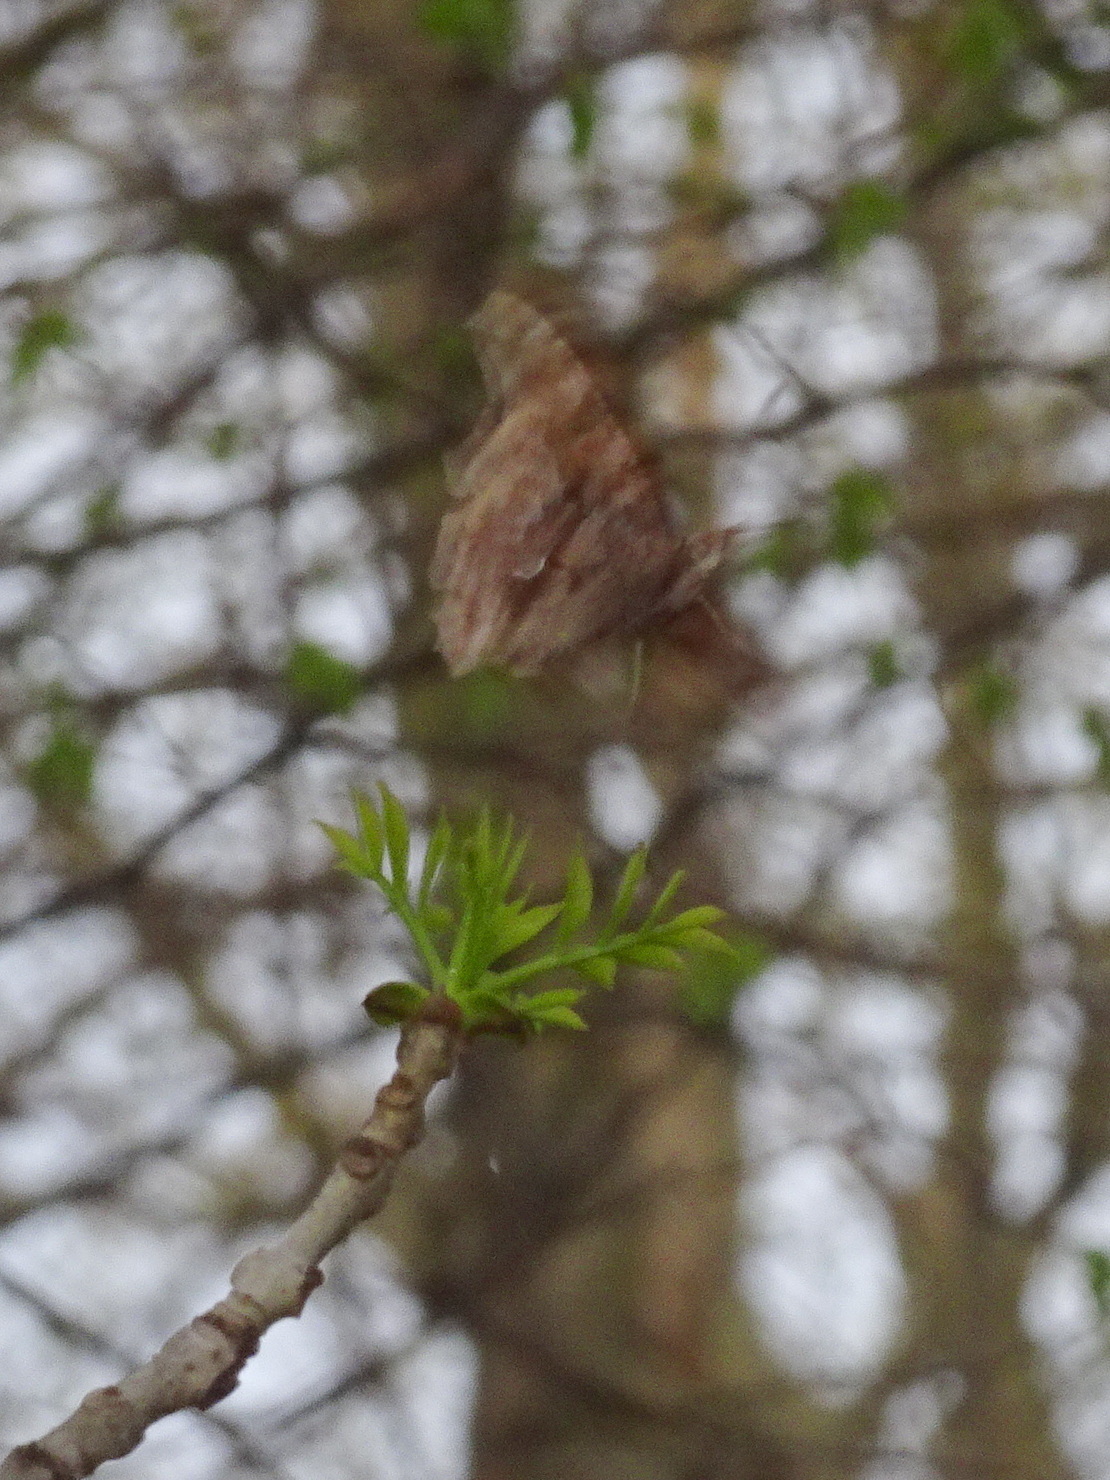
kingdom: Animalia
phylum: Arthropoda
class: Insecta
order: Lepidoptera
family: Nymphalidae
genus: Polygonia
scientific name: Polygonia comma
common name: Eastern comma
